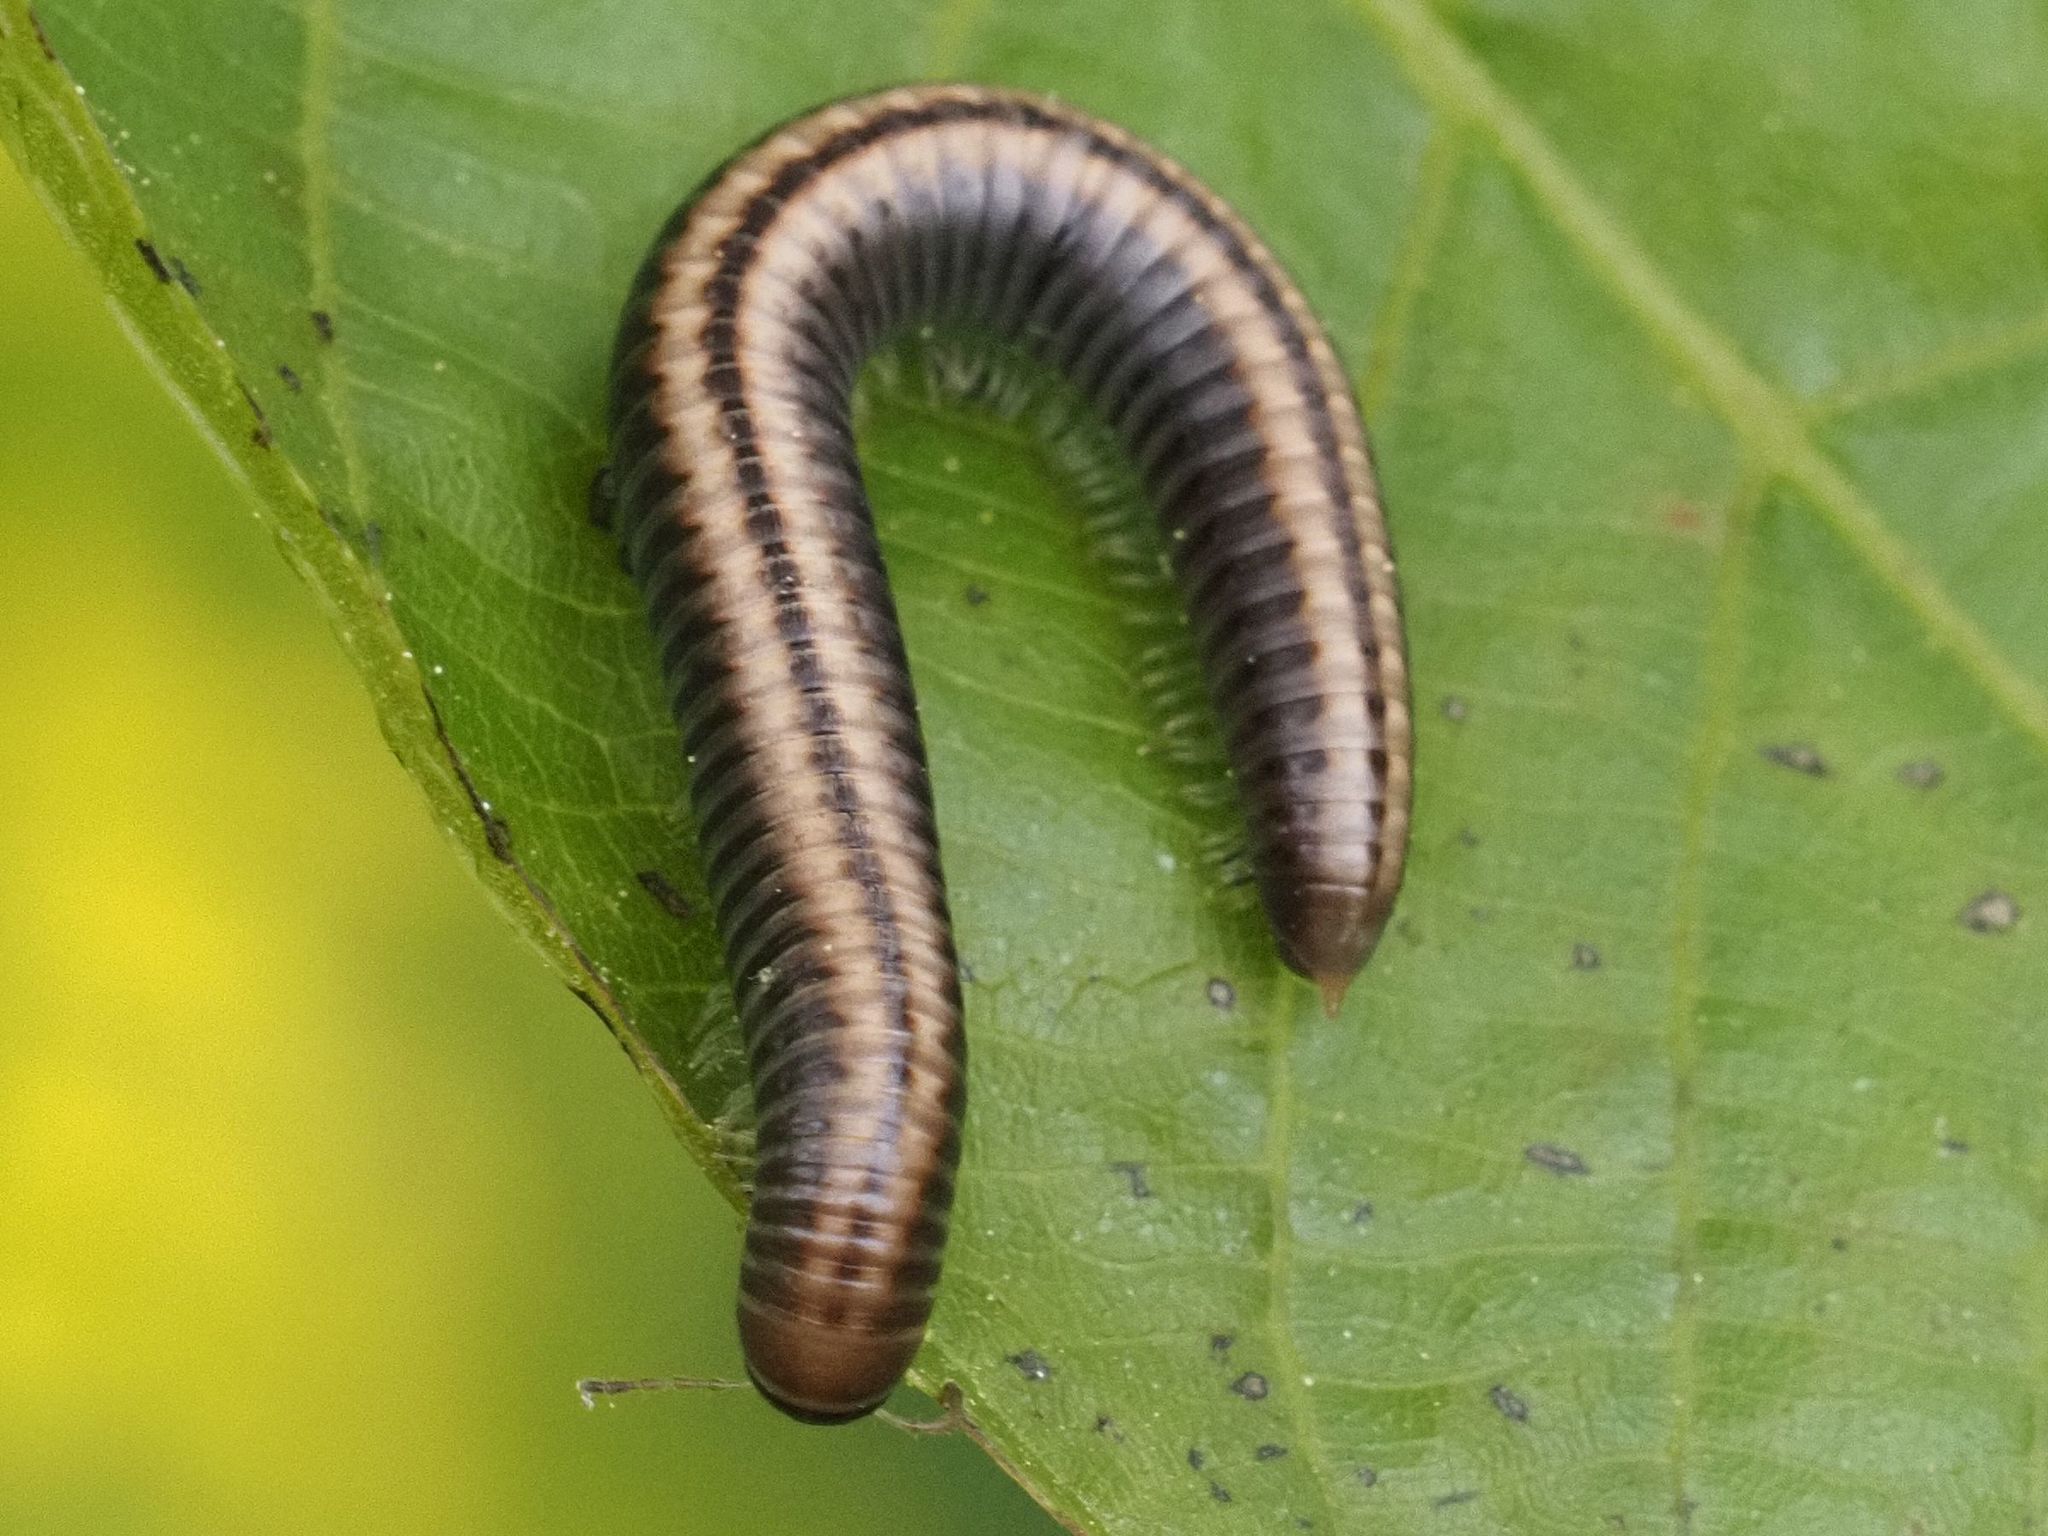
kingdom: Animalia
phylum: Arthropoda
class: Diplopoda
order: Julida
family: Julidae
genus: Ommatoiulus
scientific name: Ommatoiulus sabulosus
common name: Striped millipede
